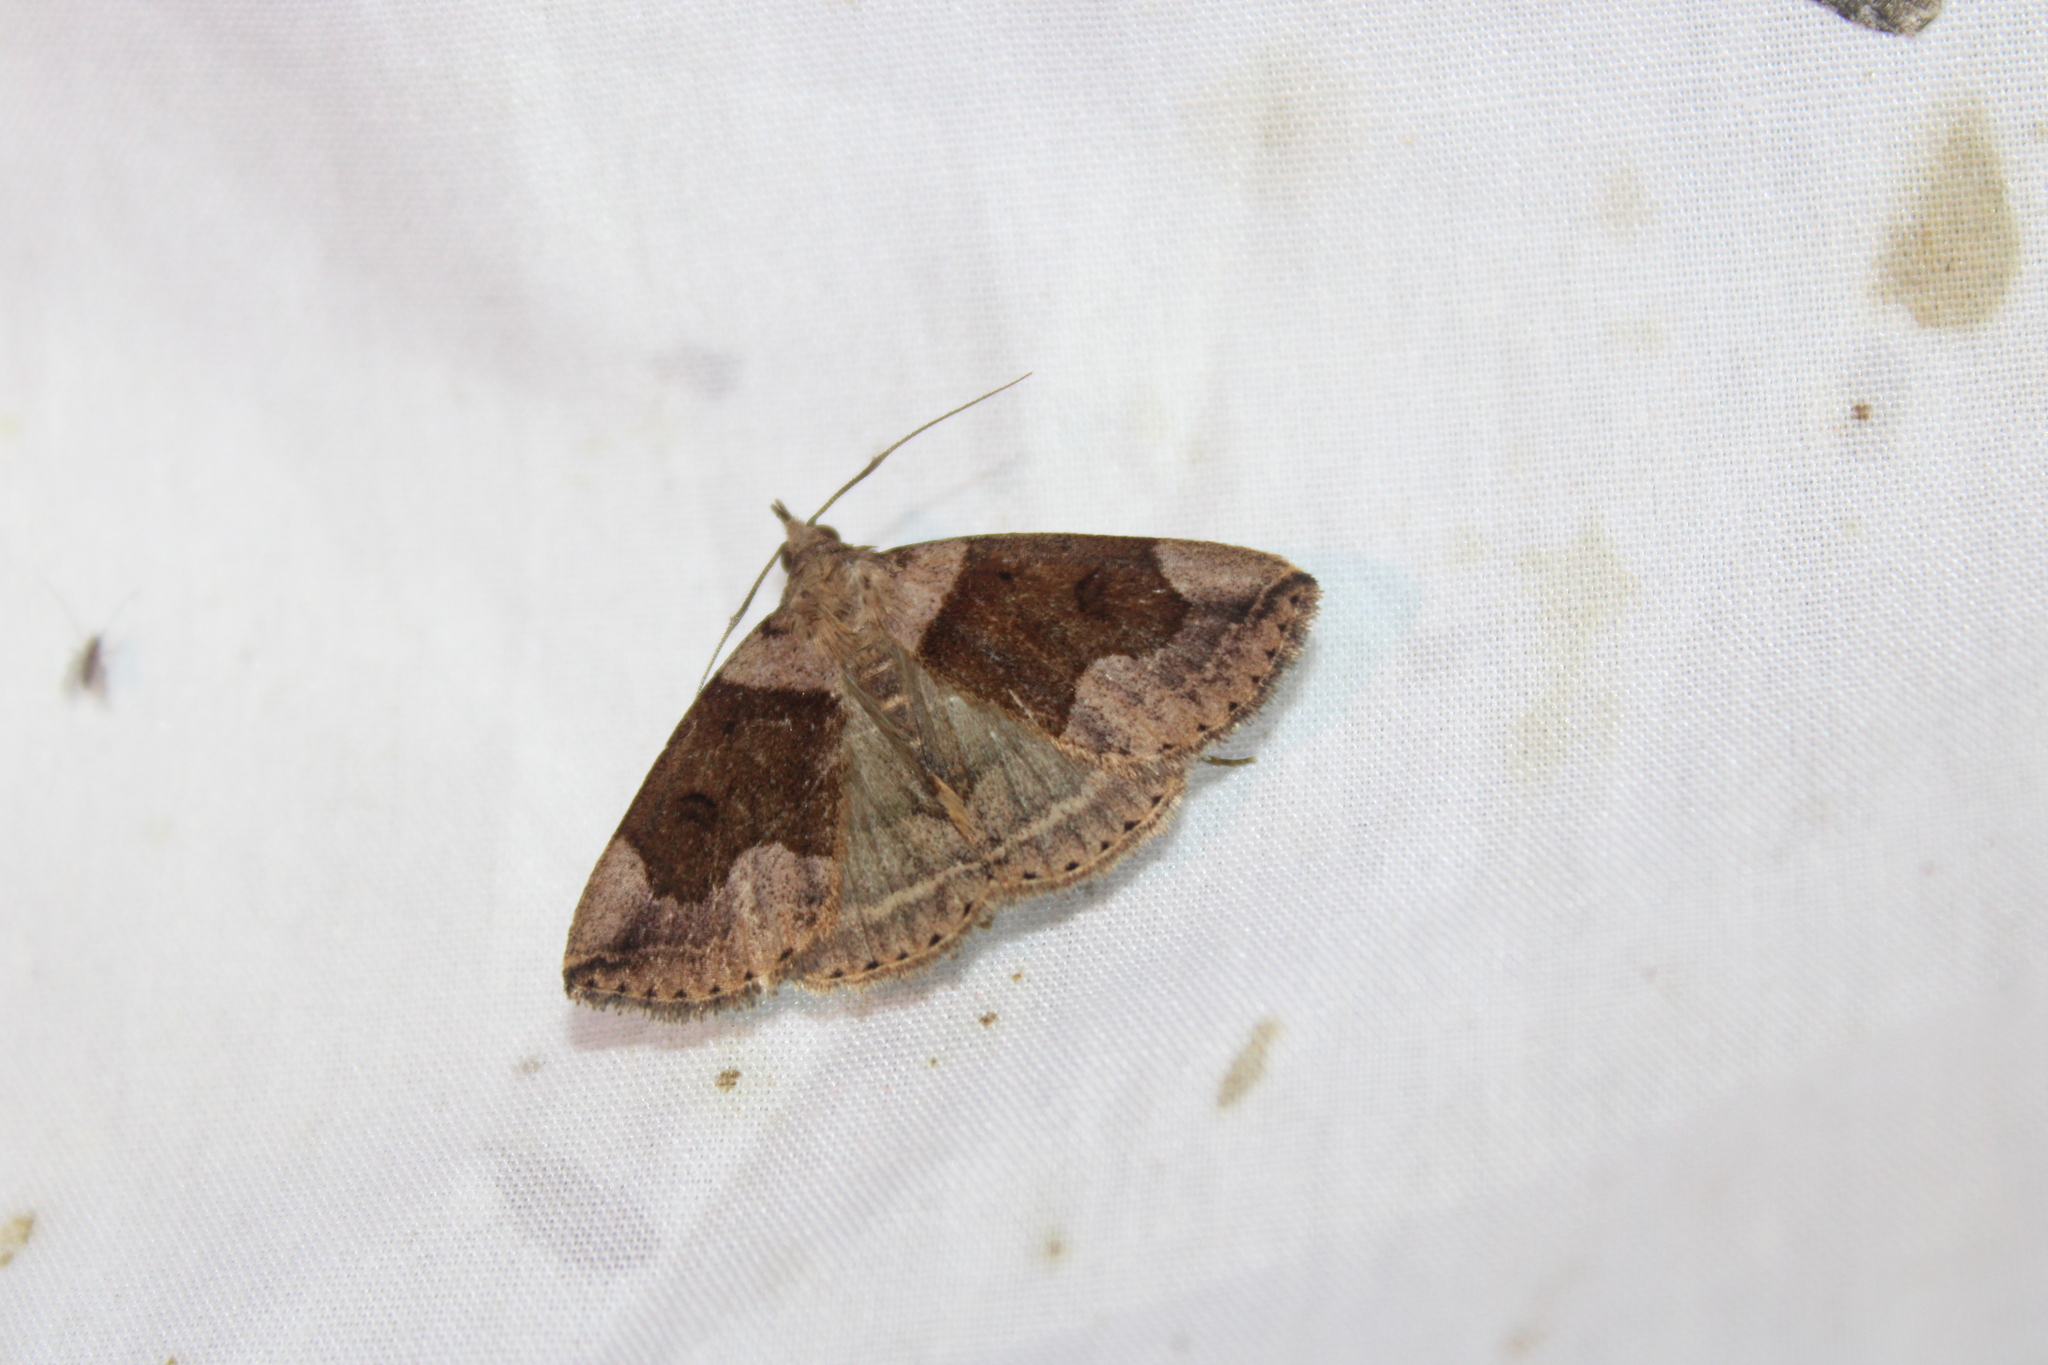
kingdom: Animalia
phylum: Arthropoda
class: Insecta
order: Lepidoptera
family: Erebidae
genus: Zanclognatha
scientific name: Zanclognatha laevigata
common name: Variable fan-foot
